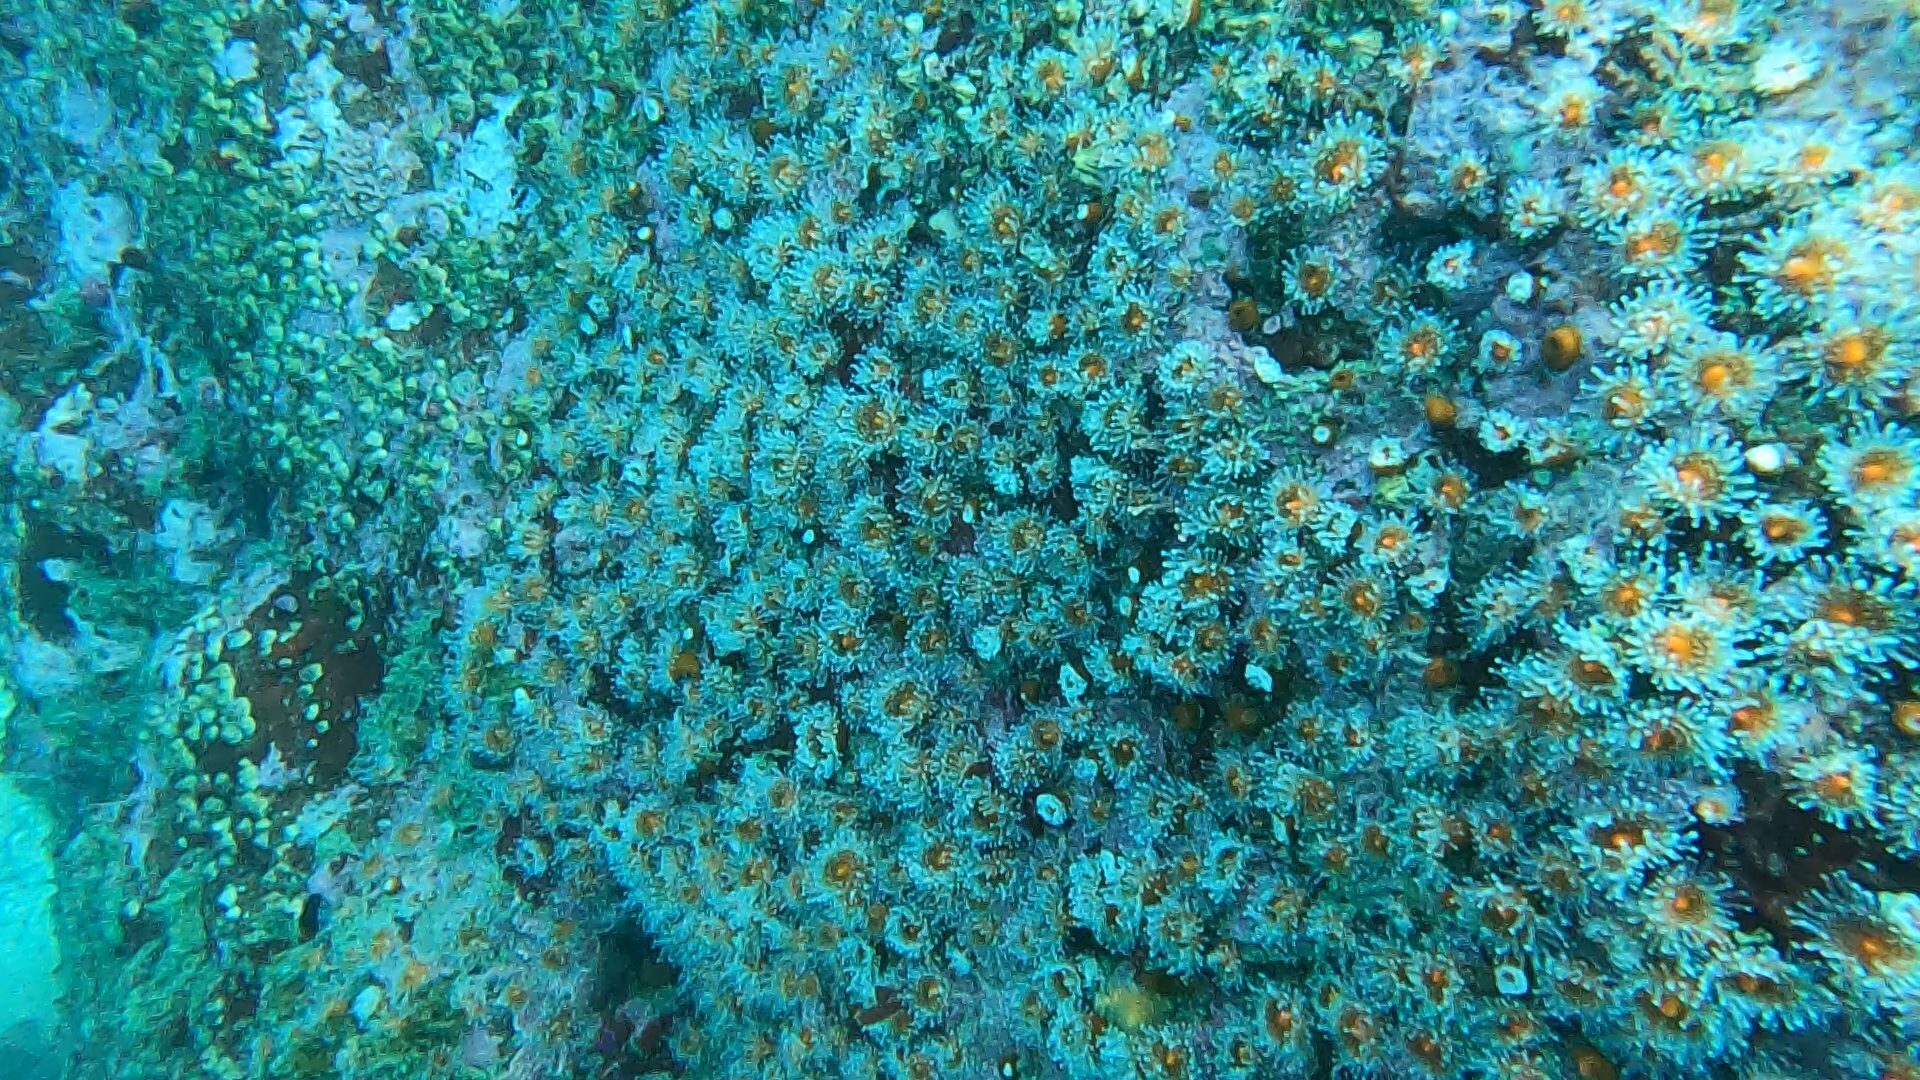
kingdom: Animalia
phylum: Cnidaria
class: Anthozoa
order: Corallimorpharia
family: Corallimorphidae
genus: Corynactis
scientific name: Corynactis californica
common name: Strawberry corallimorpharian
